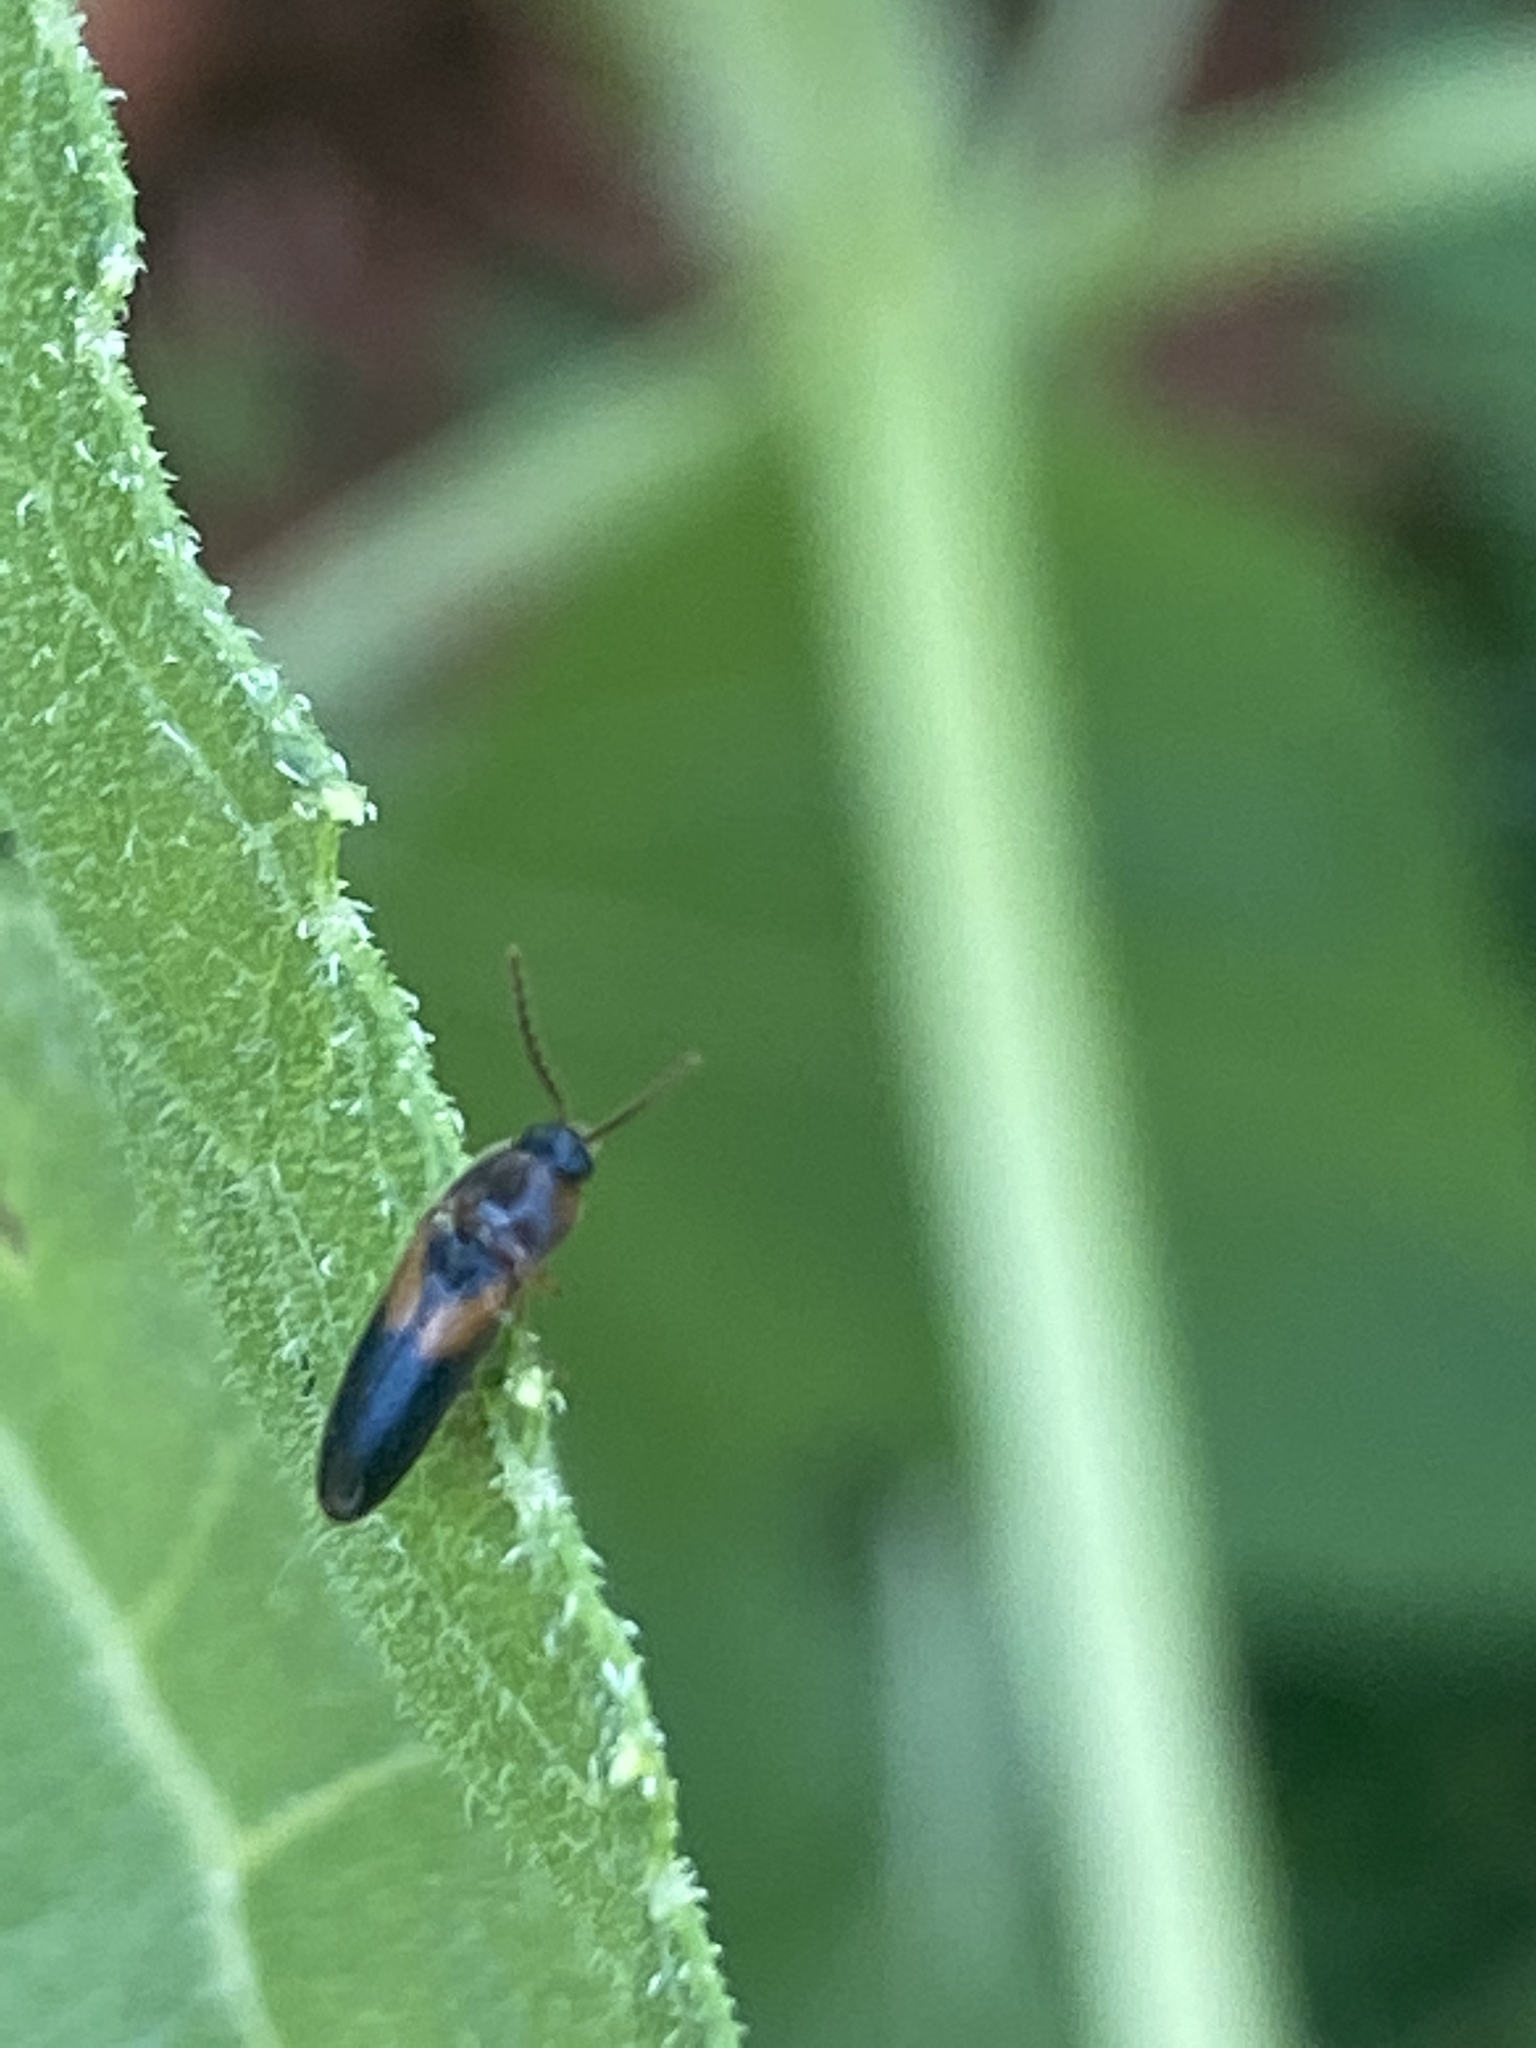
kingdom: Animalia
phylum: Arthropoda
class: Insecta
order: Coleoptera
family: Elateridae
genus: Ampedus
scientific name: Ampedus areolatus
